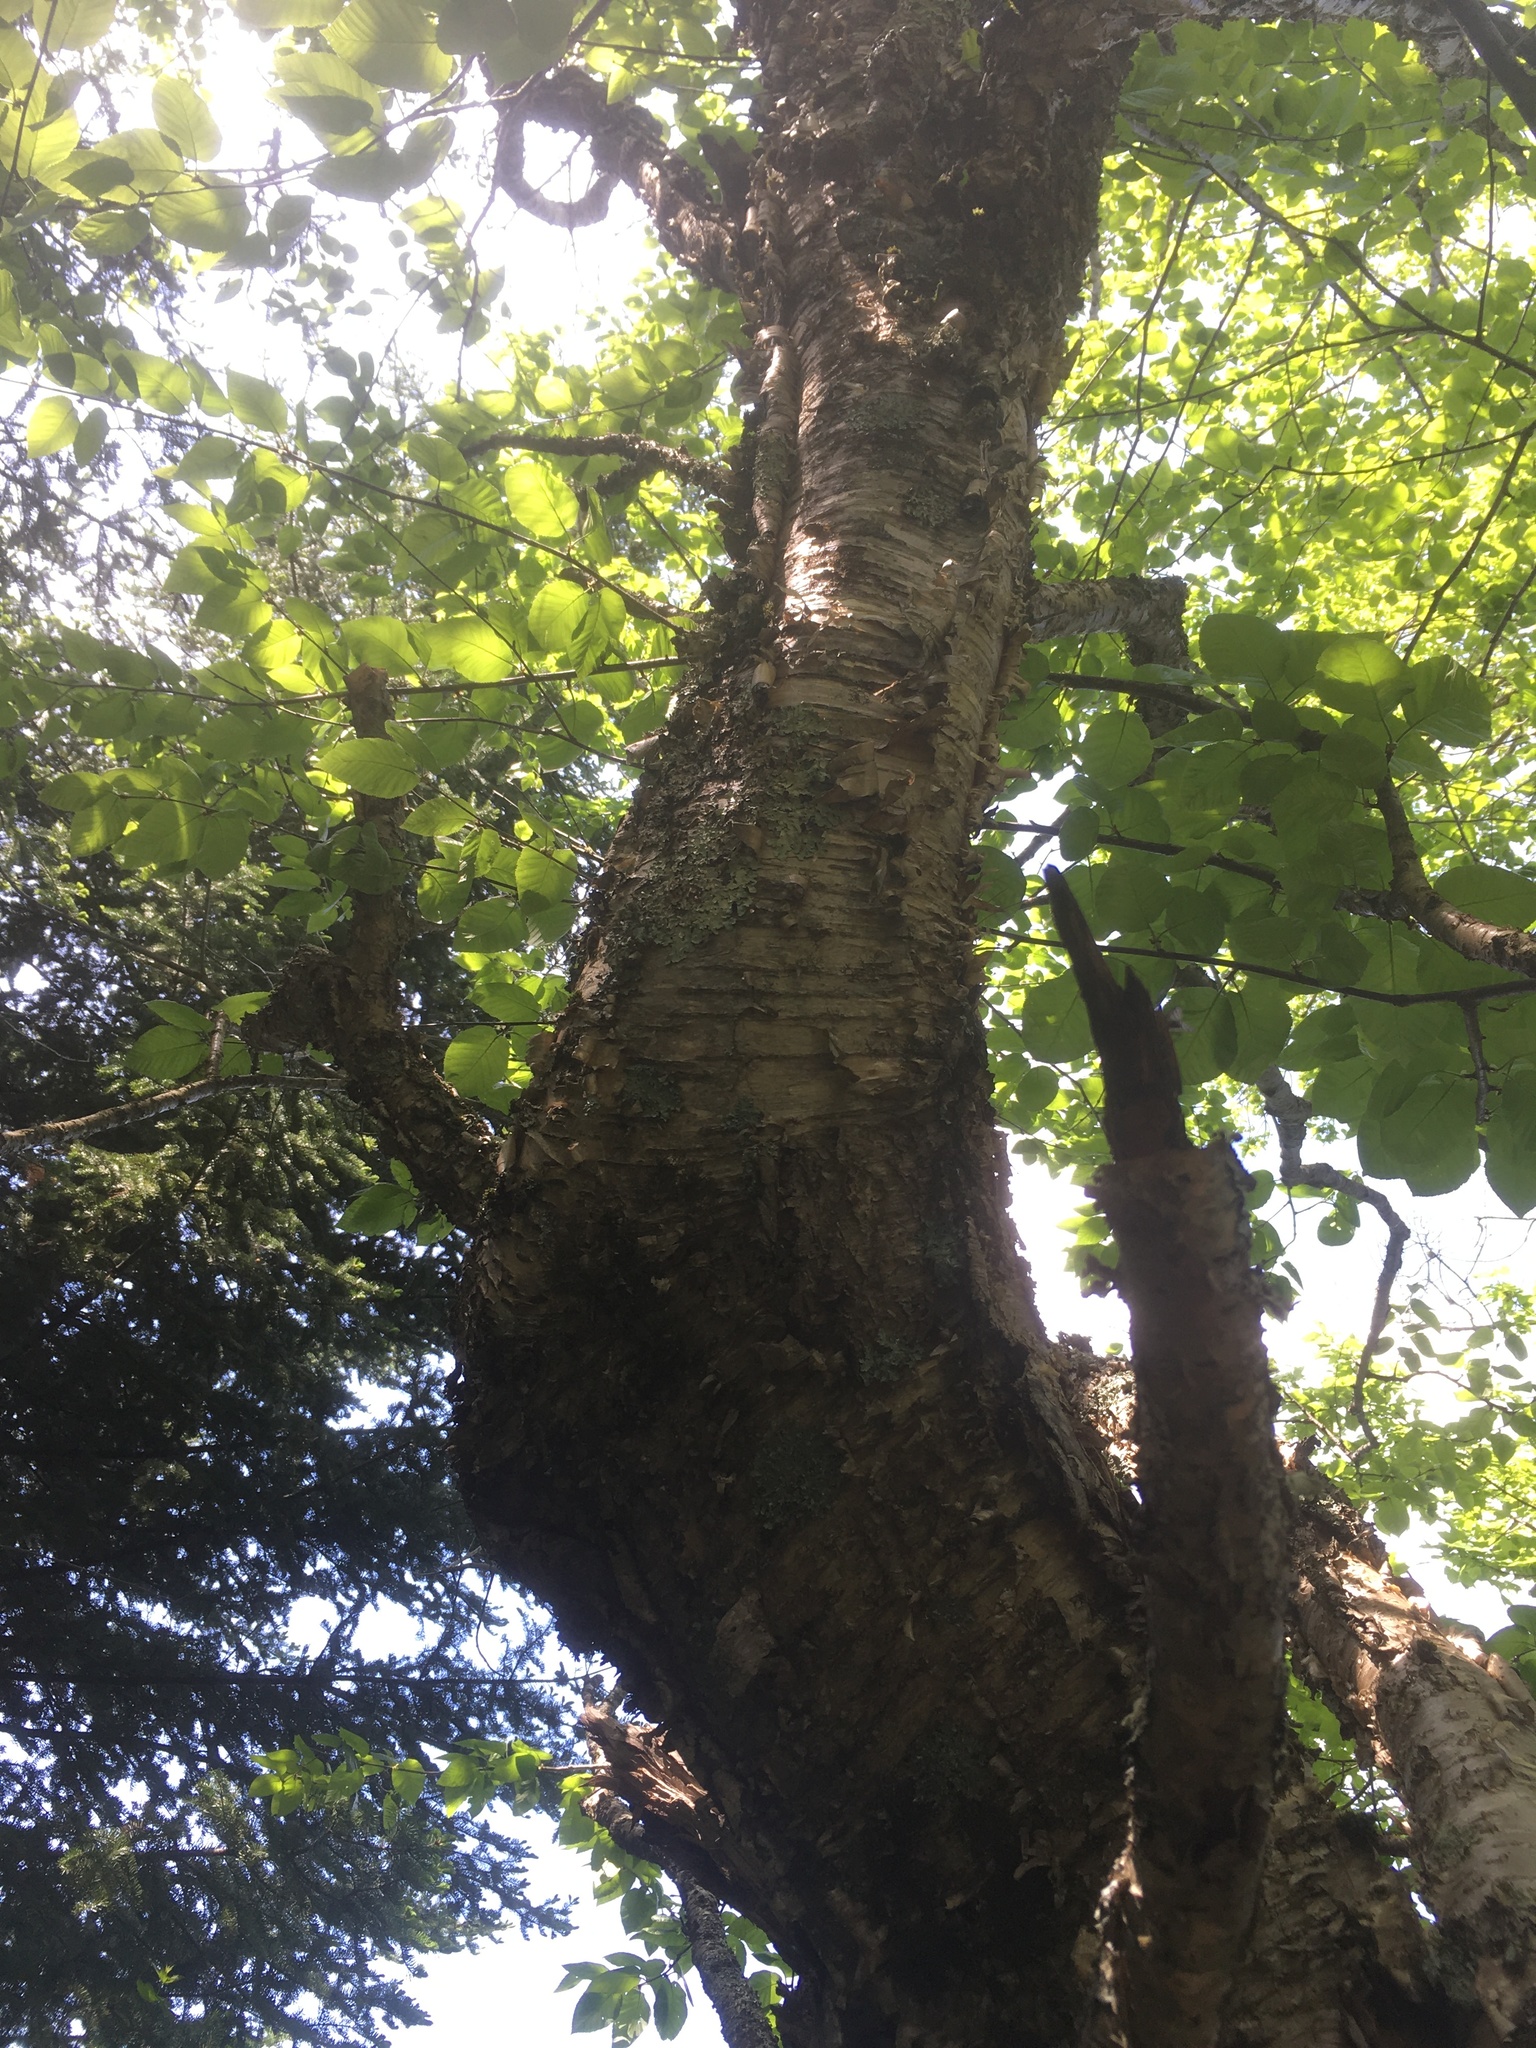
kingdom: Plantae
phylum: Tracheophyta
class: Magnoliopsida
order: Fagales
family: Betulaceae
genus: Betula
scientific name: Betula alleghaniensis
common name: Yellow birch
